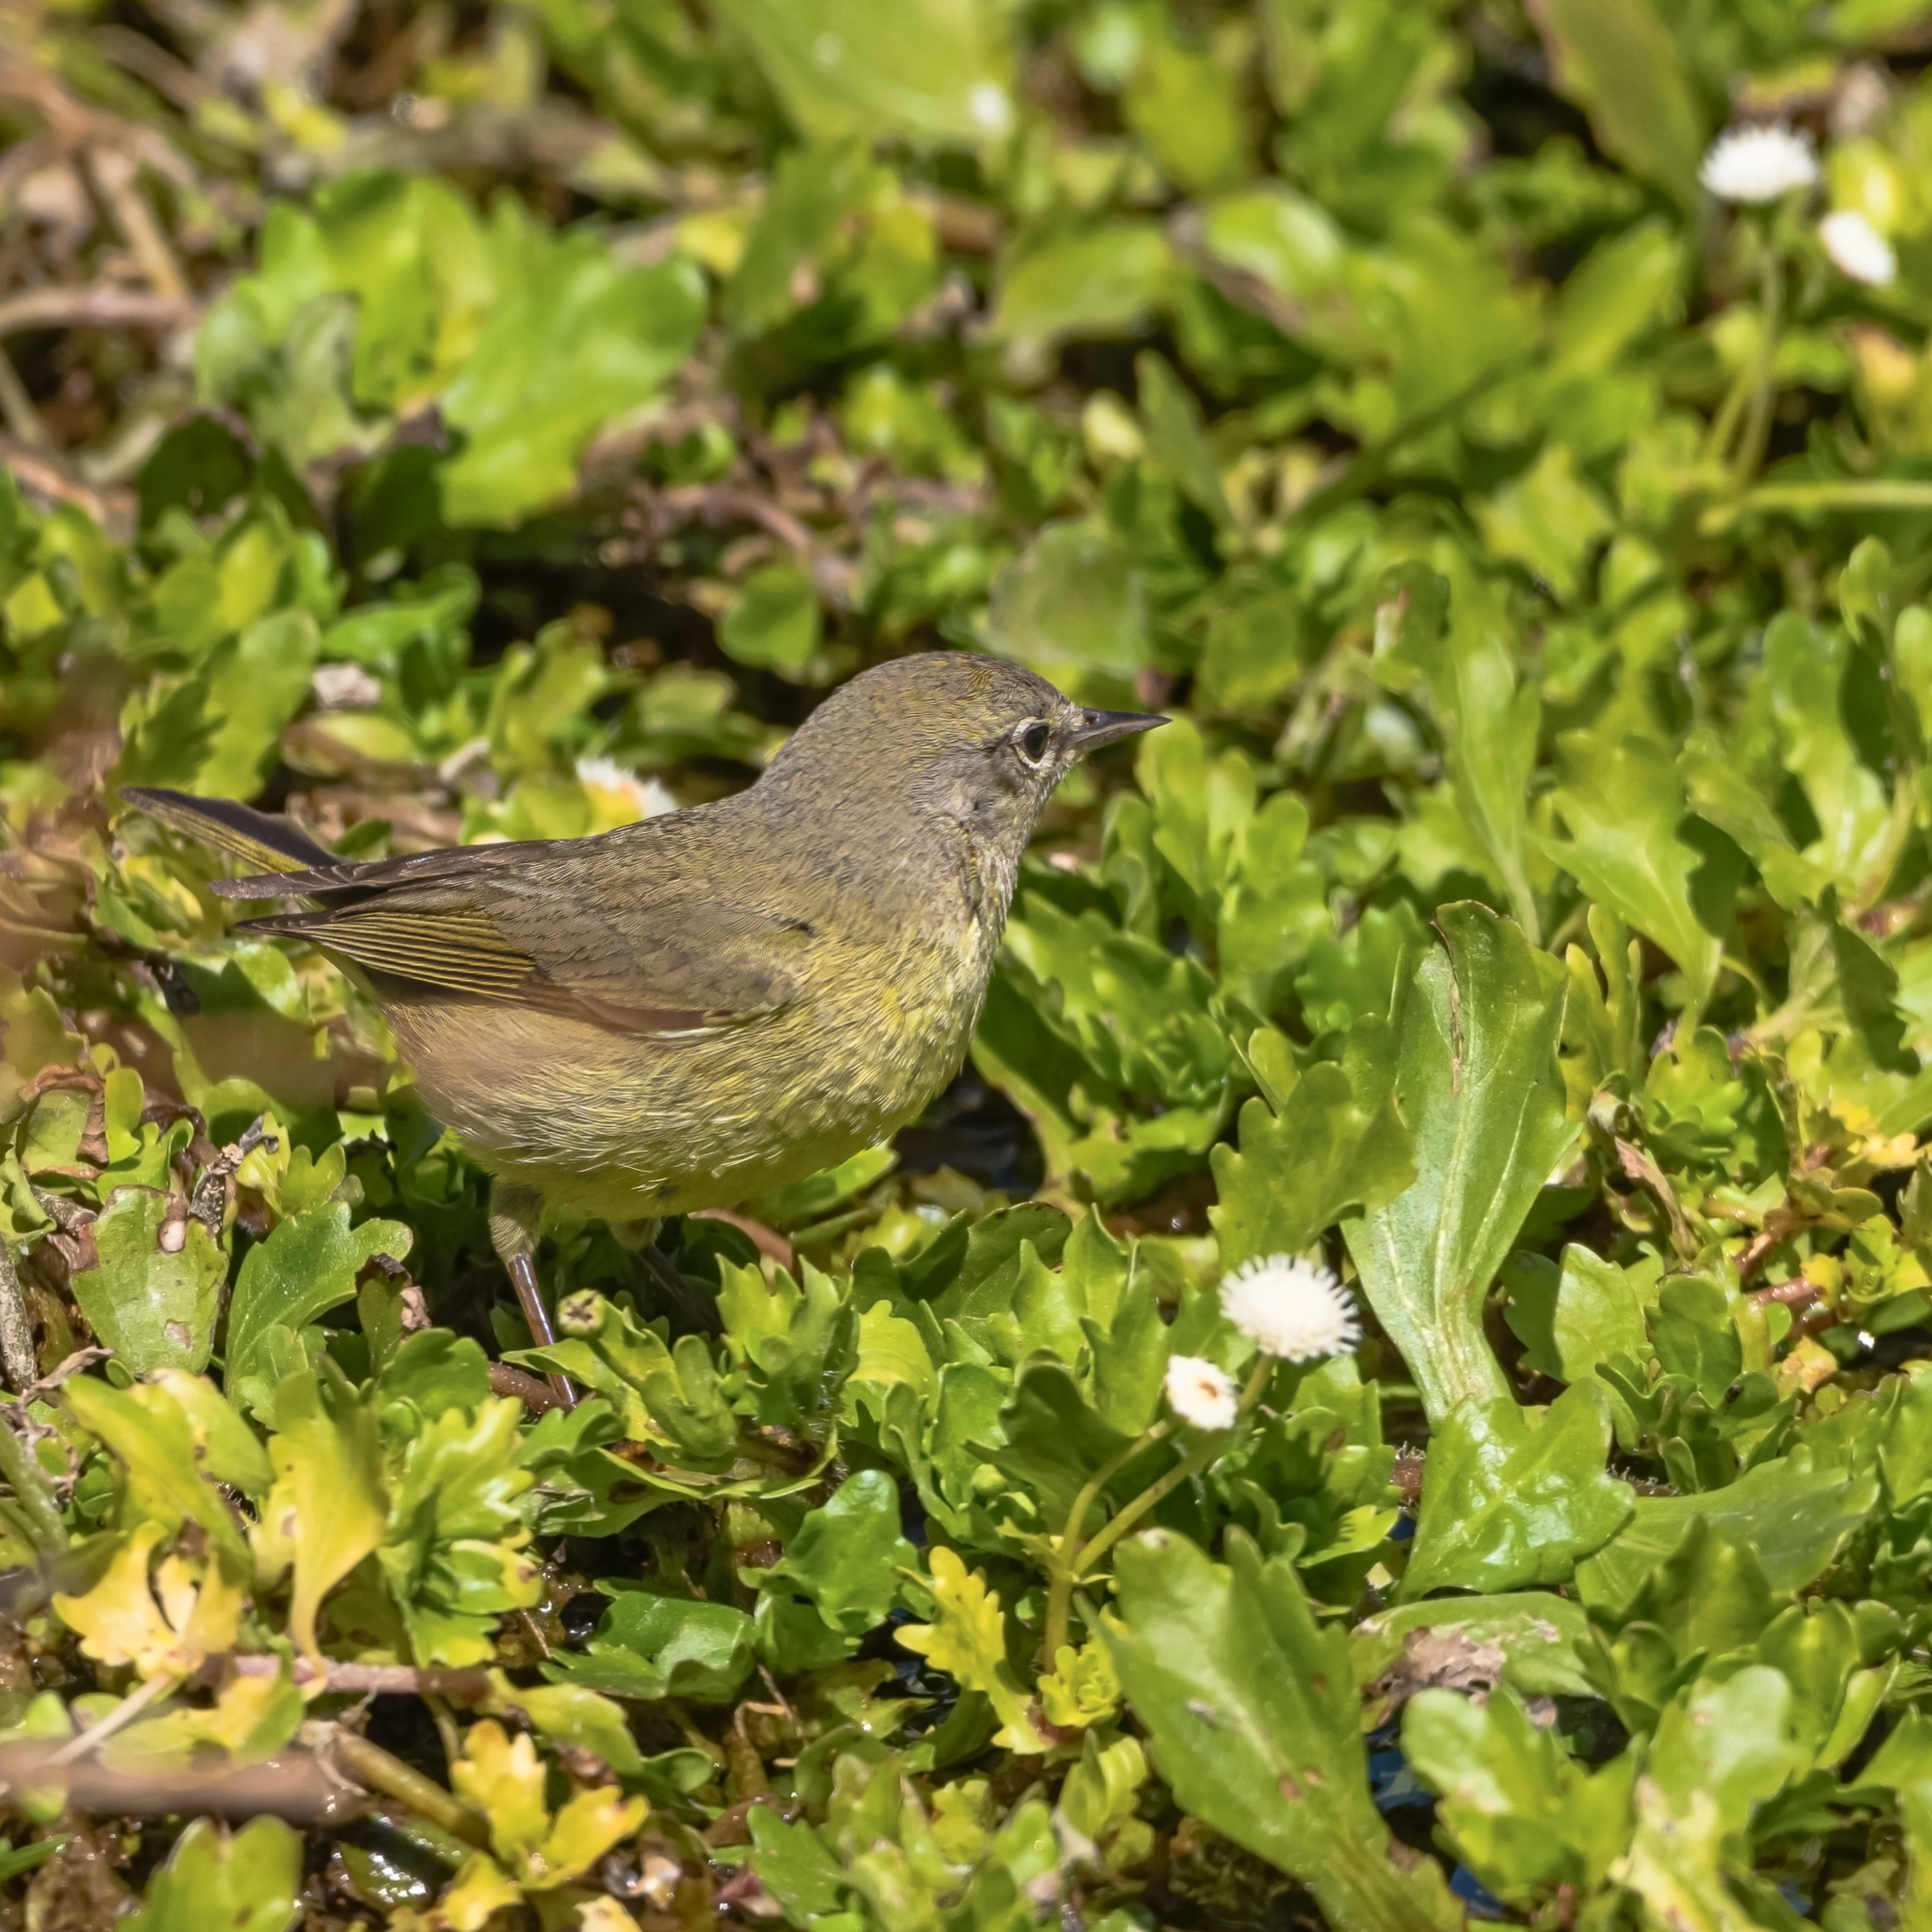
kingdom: Animalia
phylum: Chordata
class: Aves
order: Passeriformes
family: Parulidae
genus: Leiothlypis
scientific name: Leiothlypis celata
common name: Orange-crowned warbler
